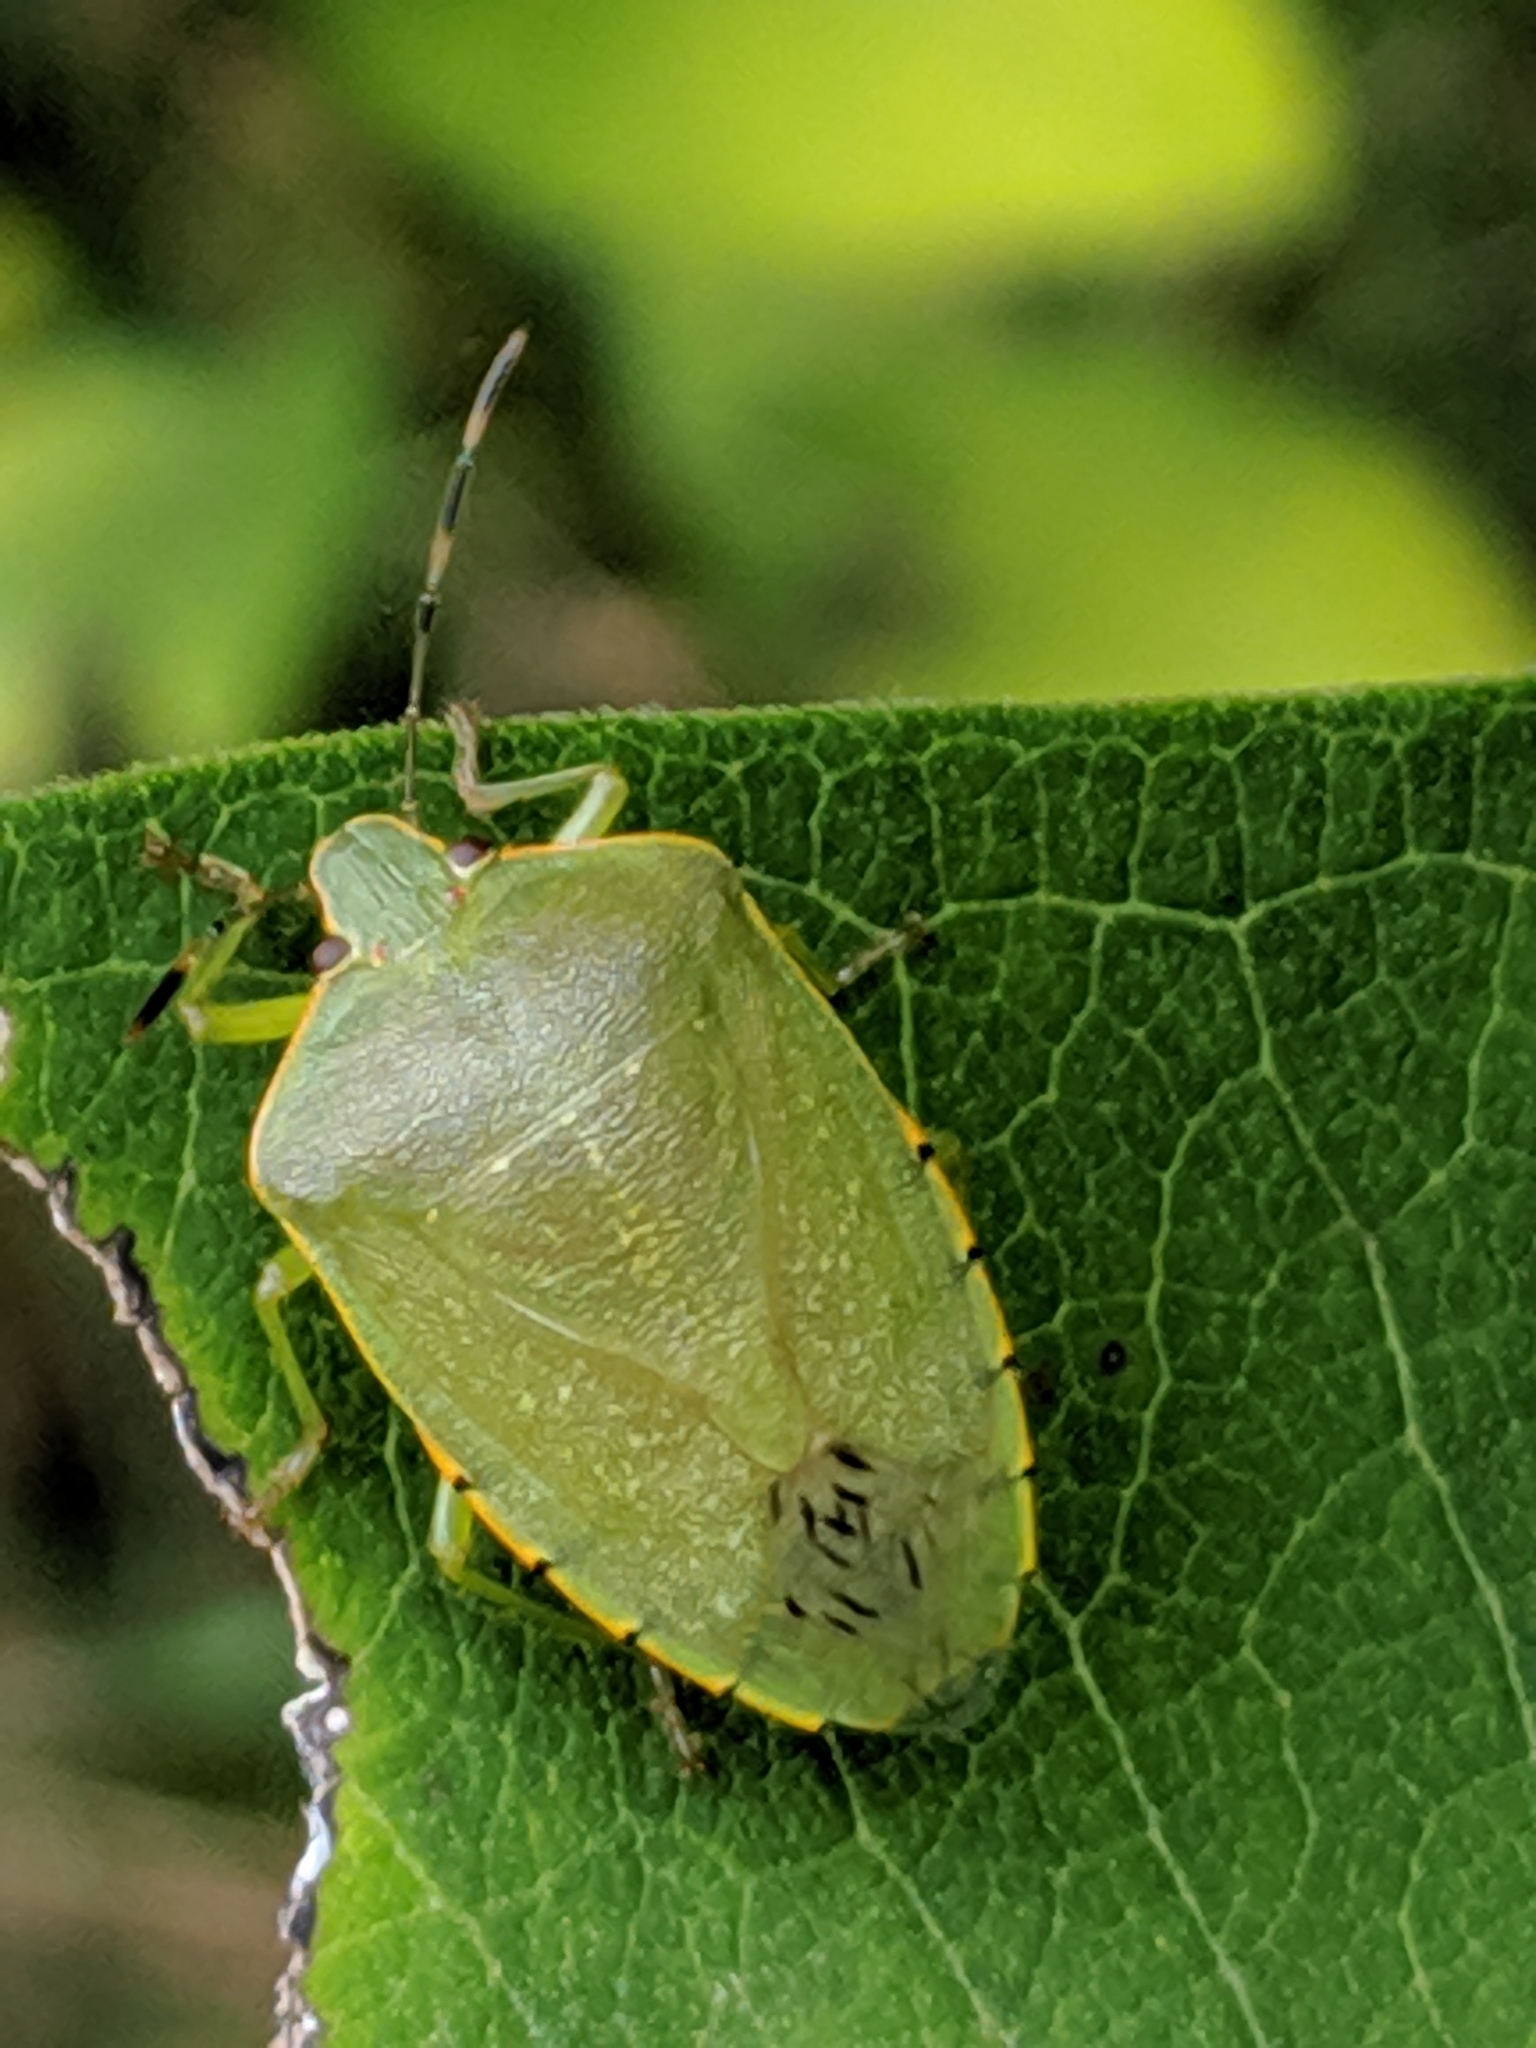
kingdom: Animalia
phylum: Arthropoda
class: Insecta
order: Hemiptera
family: Pentatomidae
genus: Chinavia
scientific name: Chinavia hilaris
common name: Green stink bug
